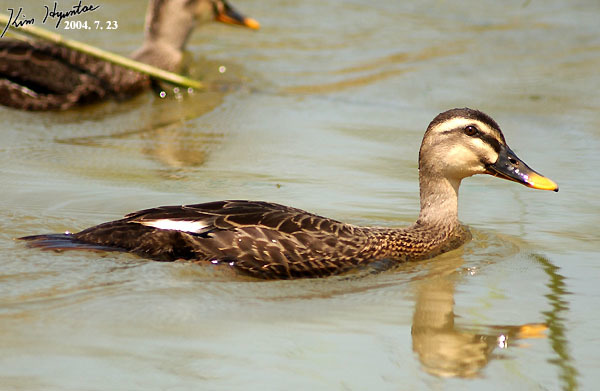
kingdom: Animalia
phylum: Chordata
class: Aves
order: Anseriformes
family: Anatidae
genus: Anas
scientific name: Anas zonorhyncha
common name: Eastern spot-billed duck
